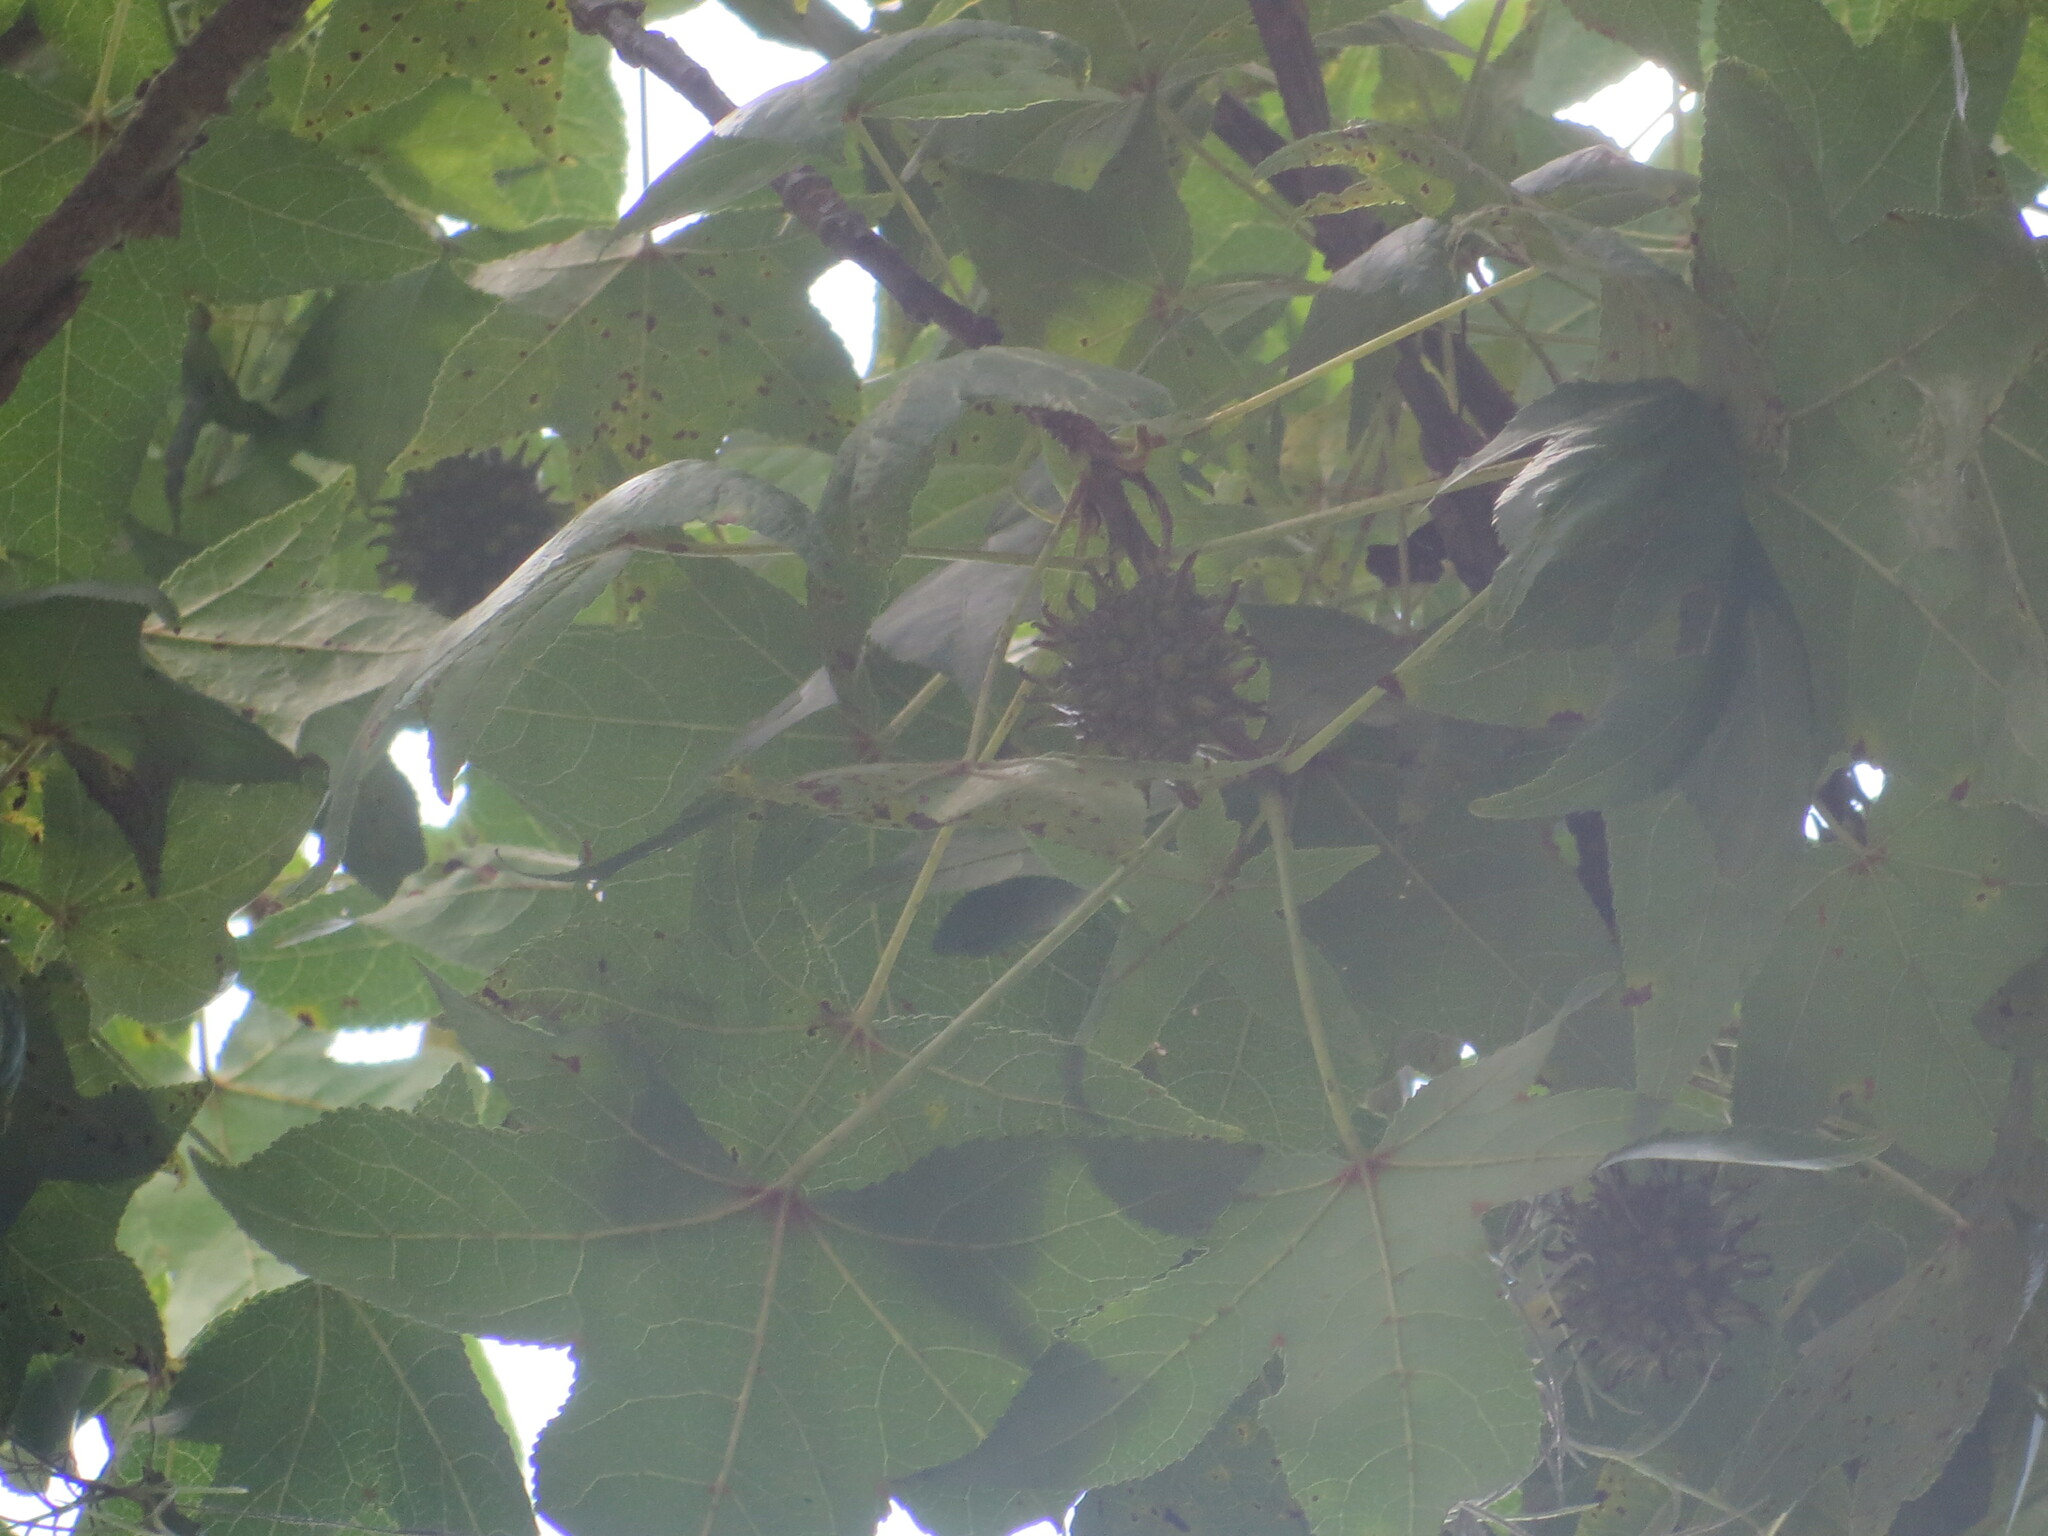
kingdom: Plantae
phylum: Tracheophyta
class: Magnoliopsida
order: Saxifragales
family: Altingiaceae
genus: Liquidambar
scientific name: Liquidambar styraciflua
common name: Sweet gum
